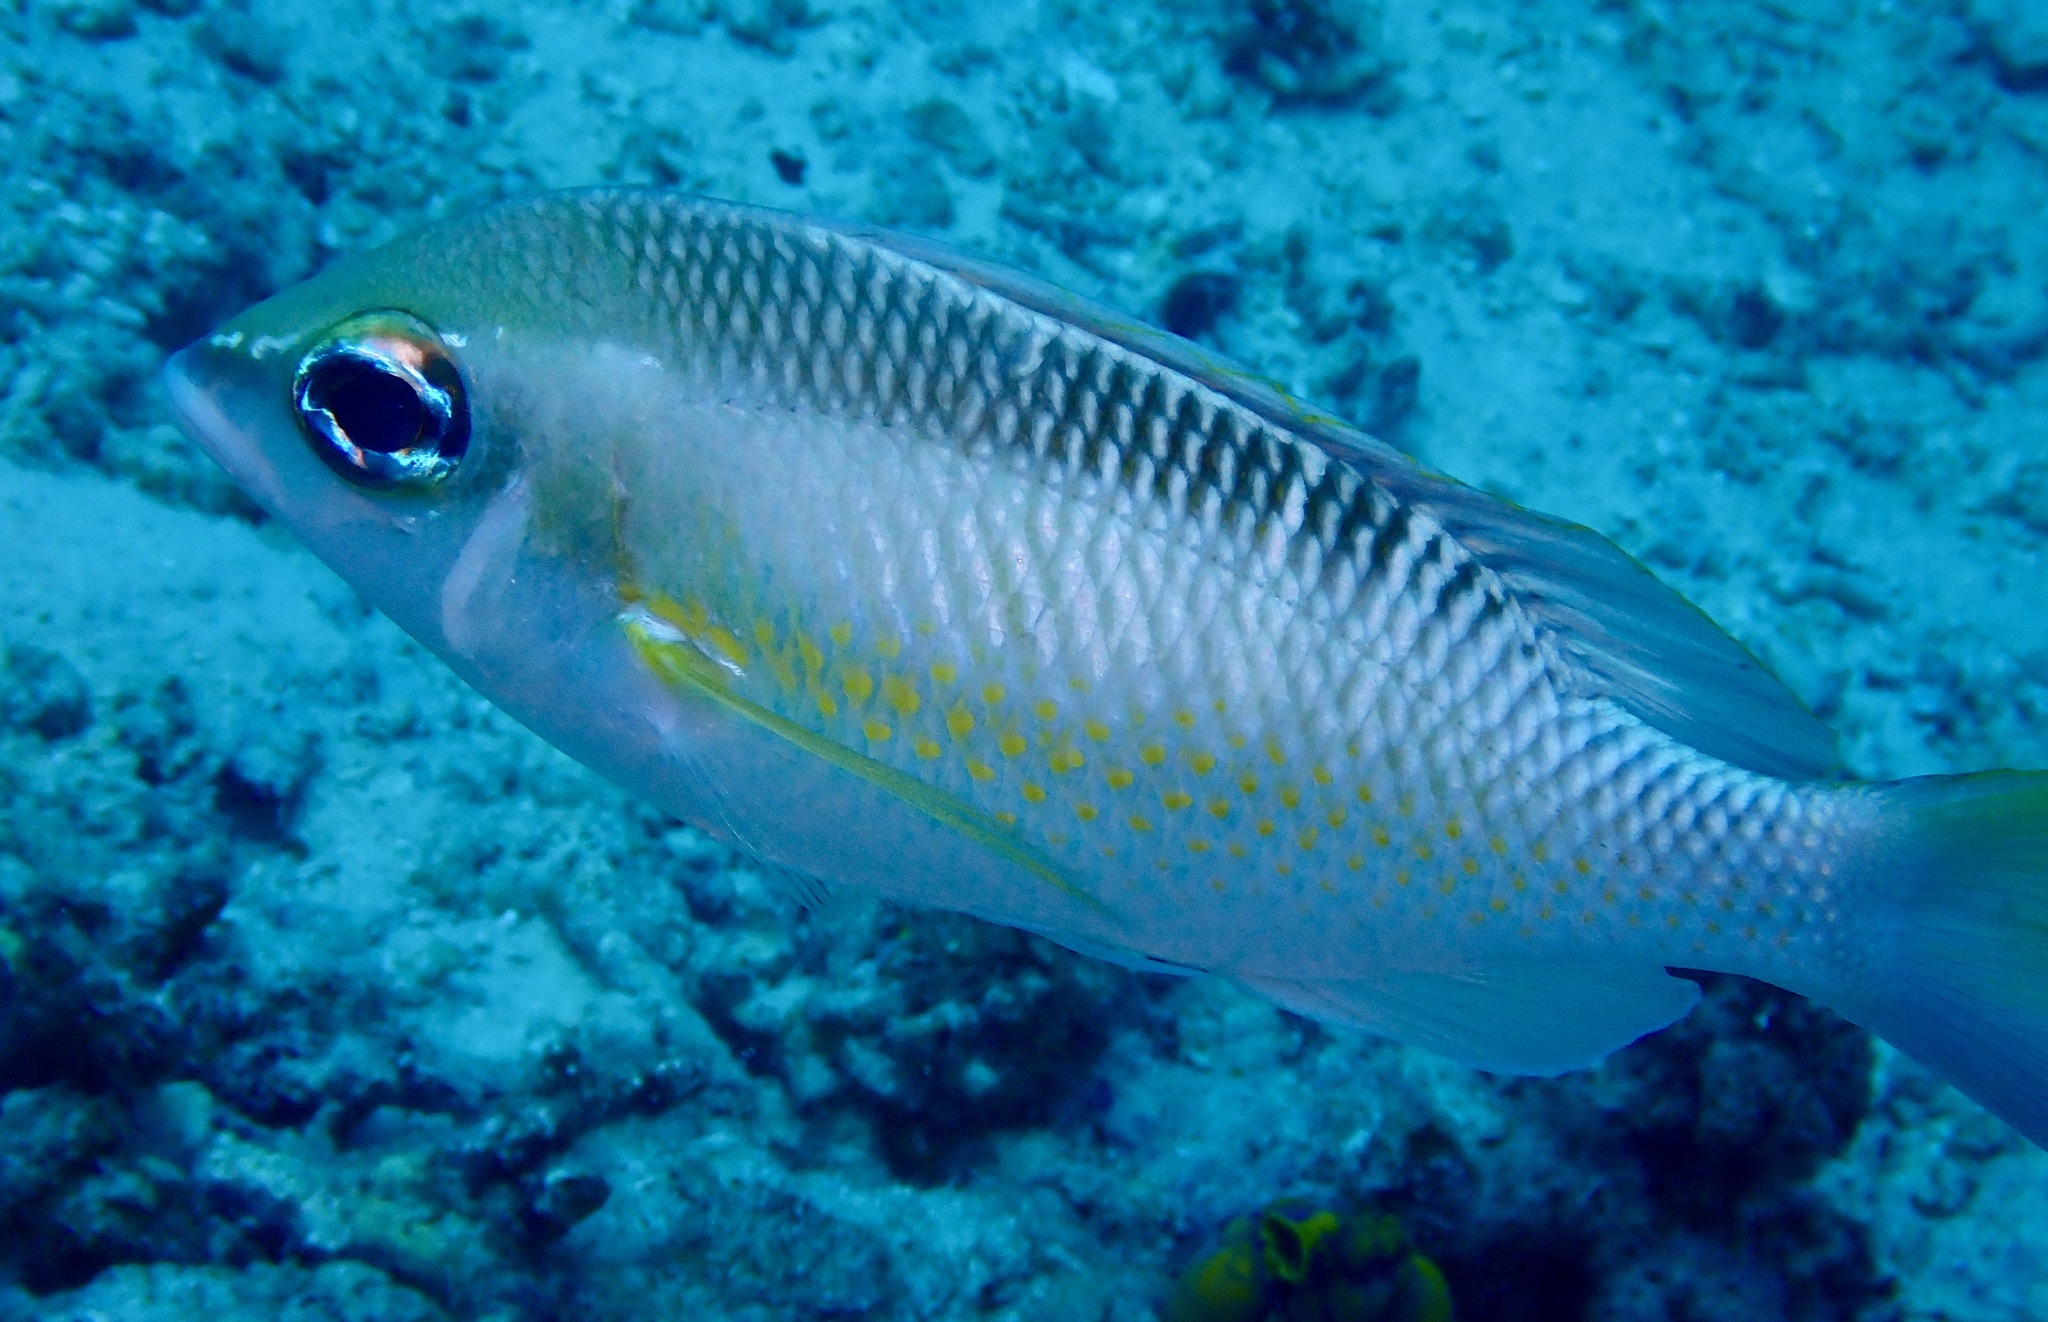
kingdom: Animalia
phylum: Chordata
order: Perciformes
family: Nemipteridae
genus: Scolopsis
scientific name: Scolopsis margaritifera
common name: Pearly monocle bream
